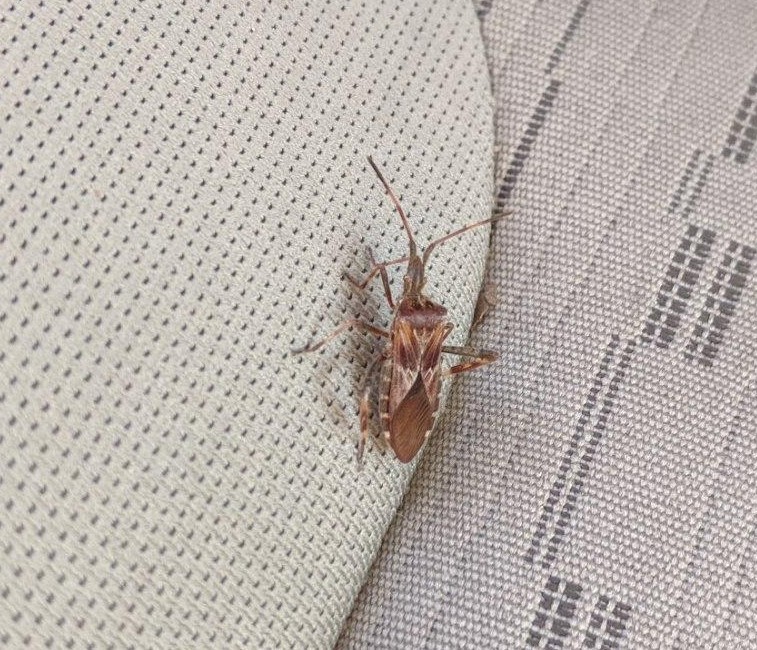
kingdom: Animalia
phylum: Arthropoda
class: Insecta
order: Hemiptera
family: Coreidae
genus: Leptoglossus
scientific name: Leptoglossus occidentalis
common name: Western conifer-seed bug
